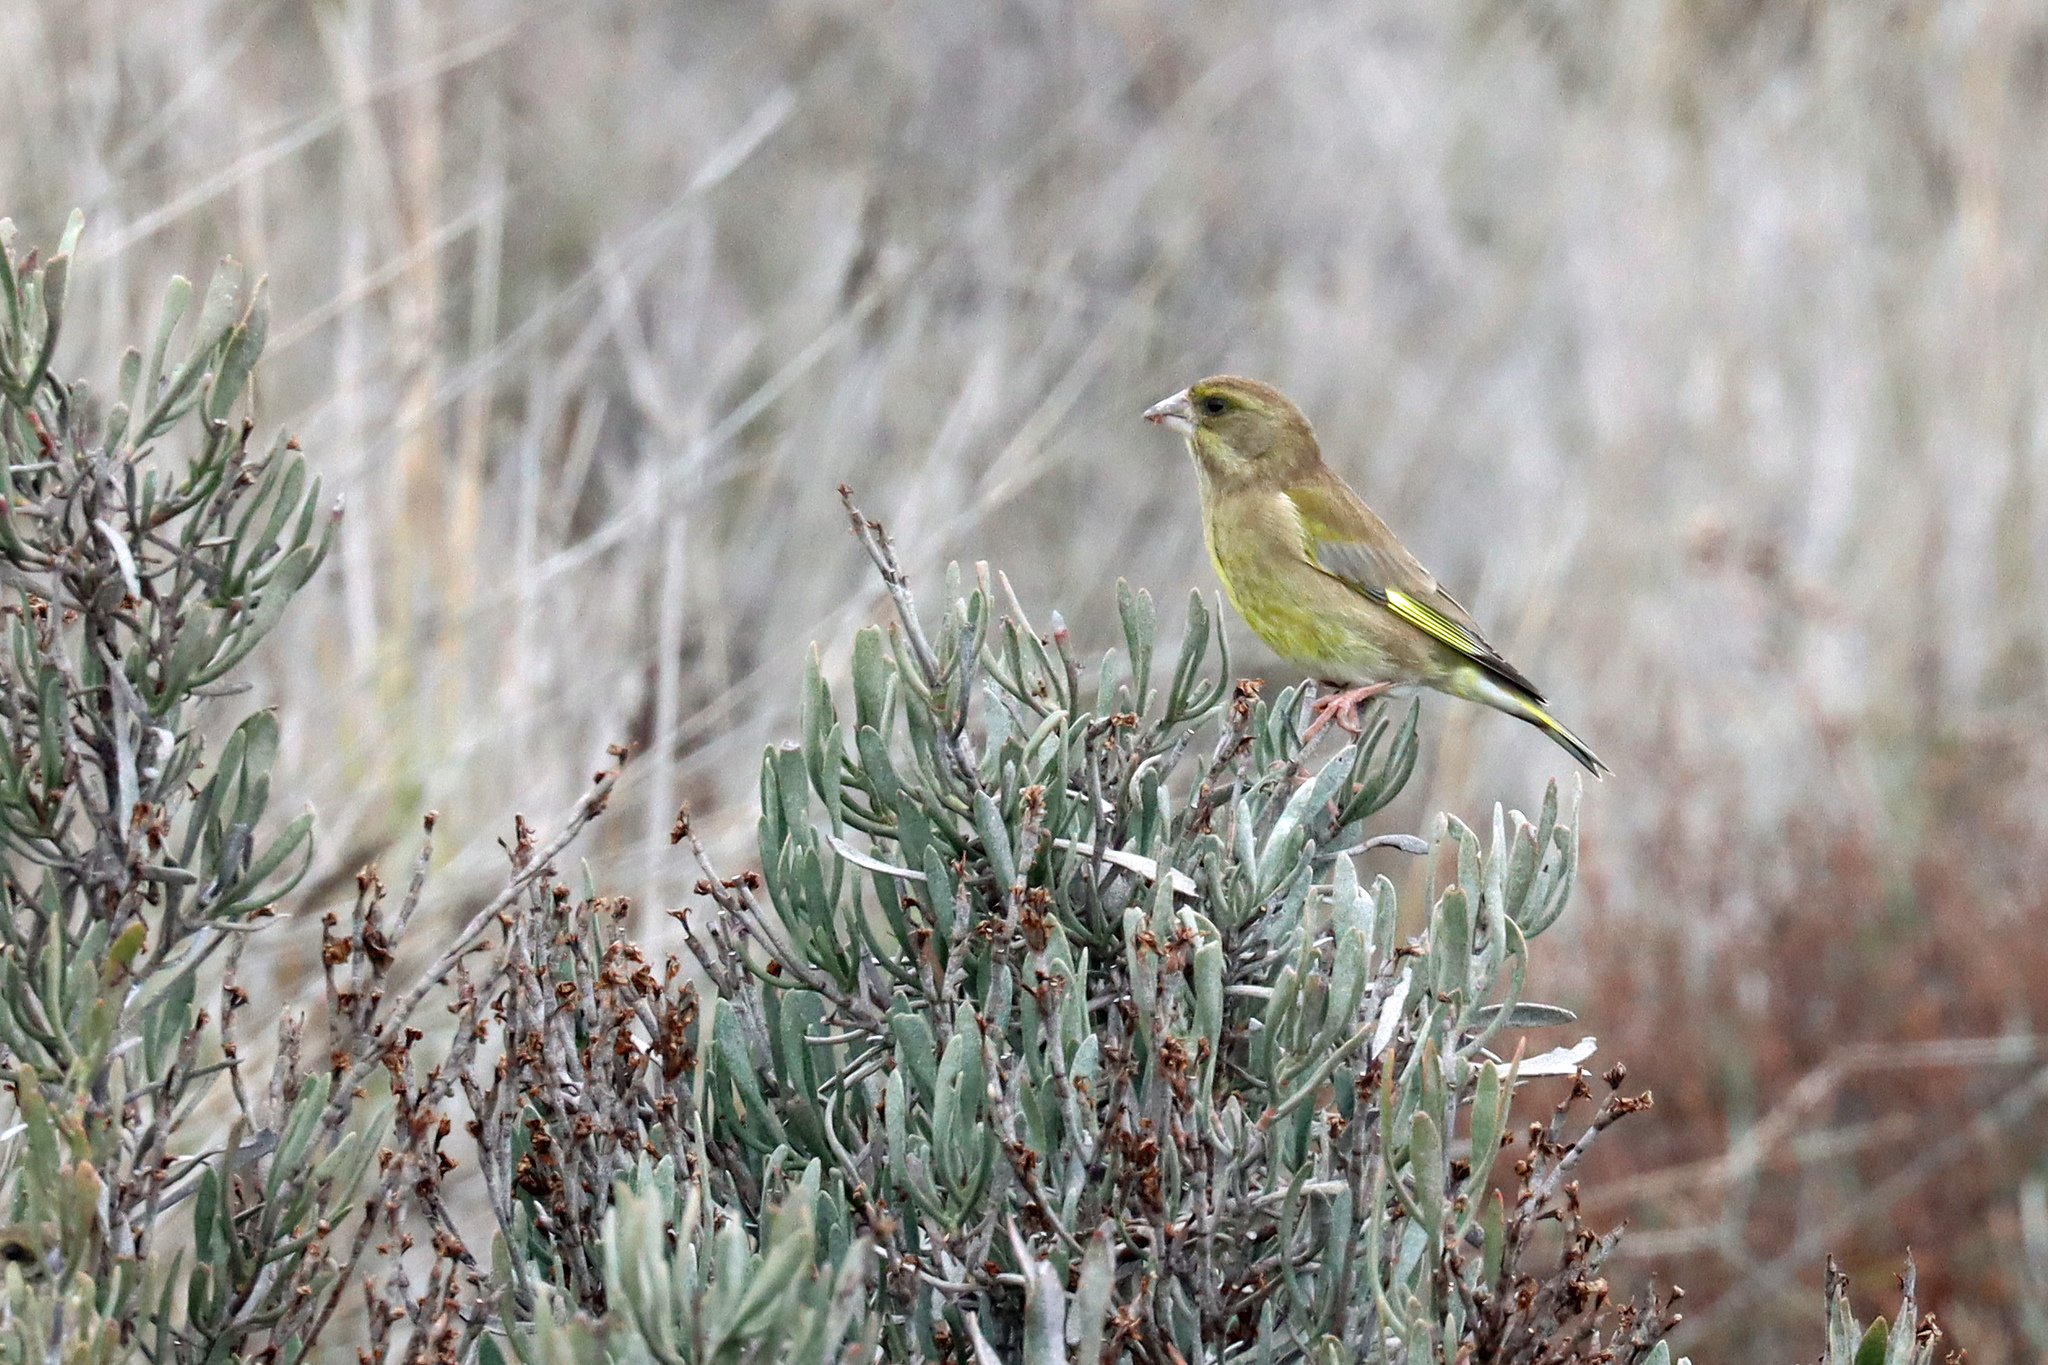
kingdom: Plantae
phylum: Tracheophyta
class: Liliopsida
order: Poales
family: Poaceae
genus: Chloris
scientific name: Chloris chloris
